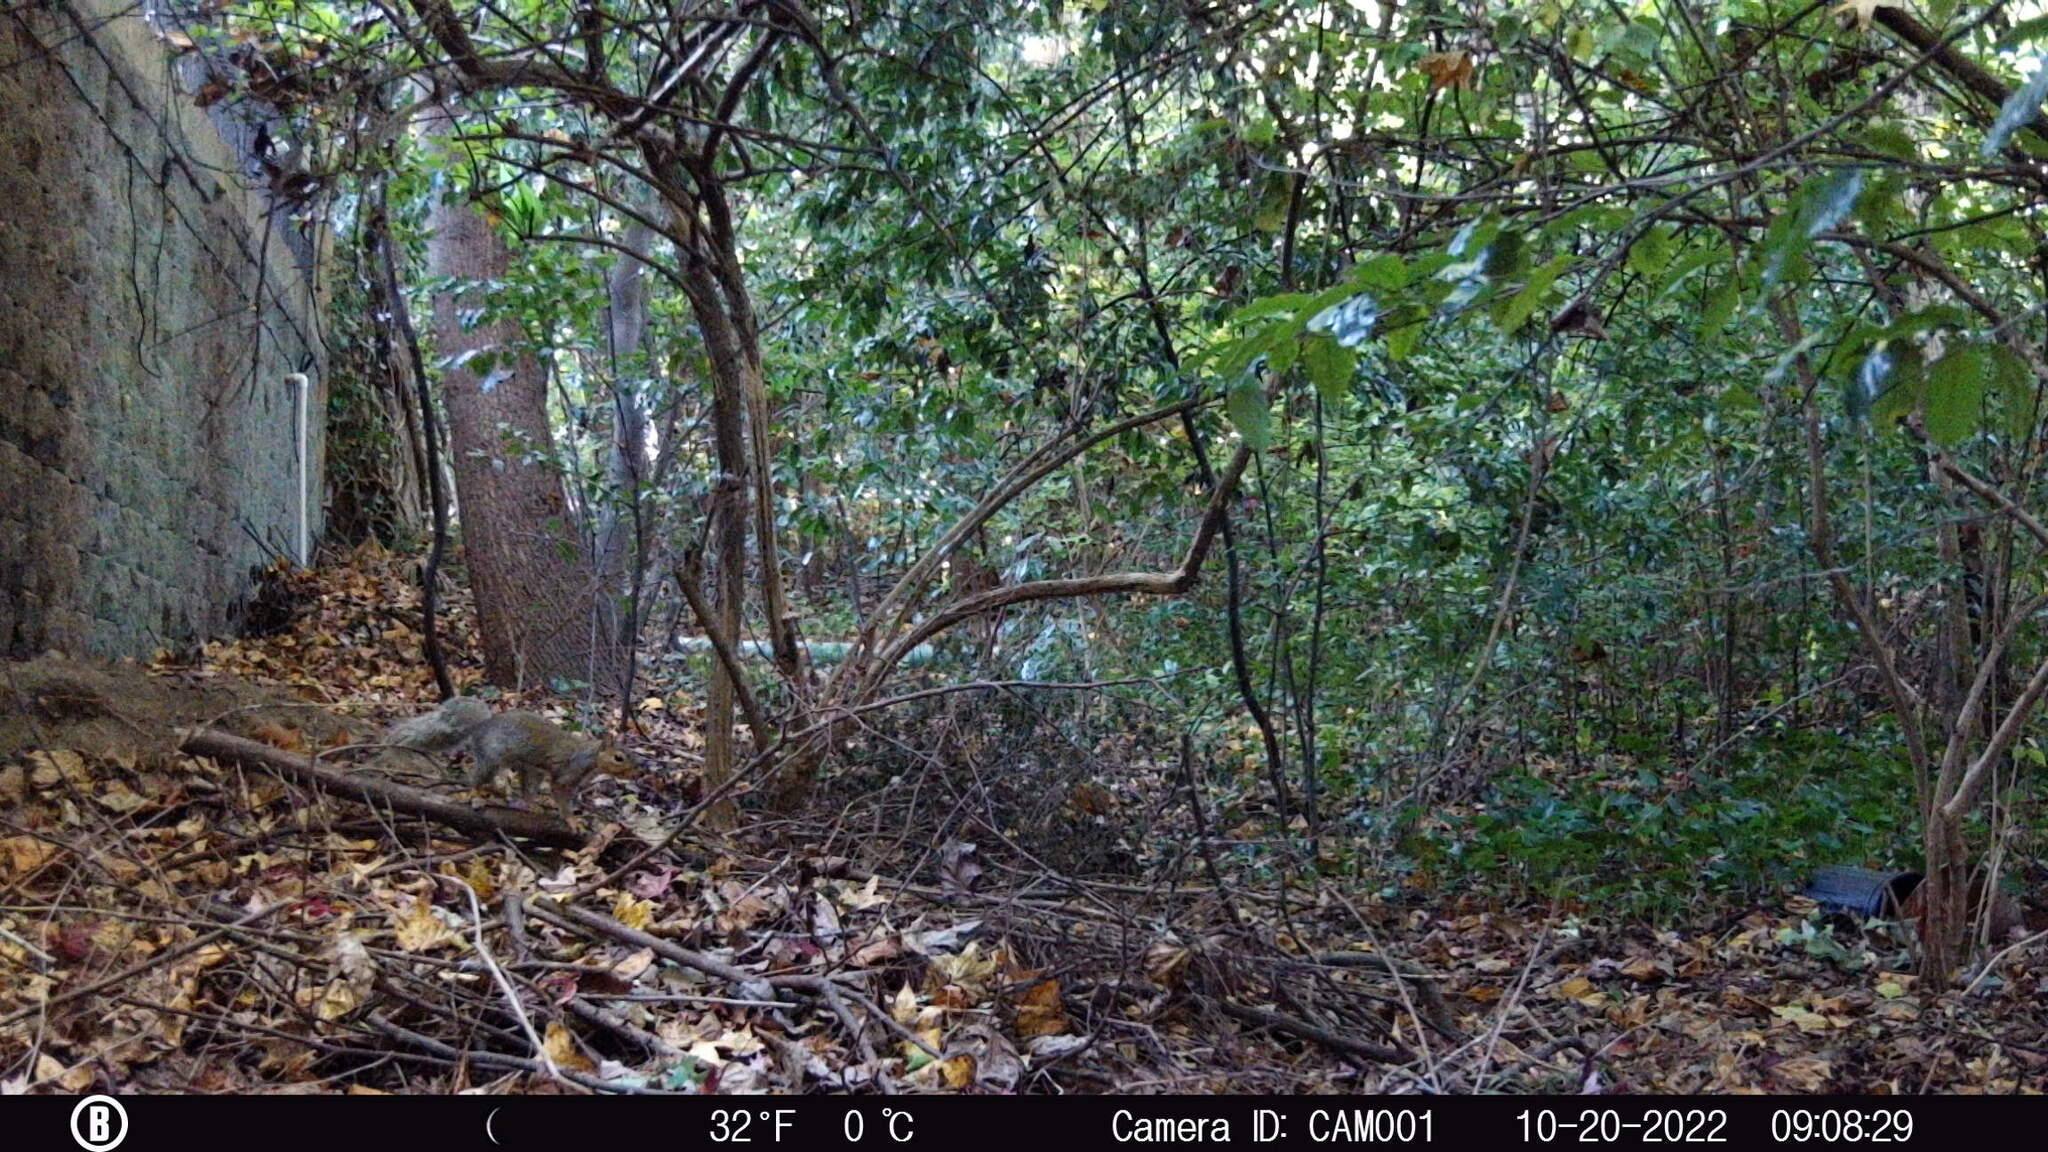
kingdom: Animalia
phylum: Chordata
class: Mammalia
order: Rodentia
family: Sciuridae
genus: Sciurus
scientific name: Sciurus carolinensis
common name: Eastern gray squirrel
